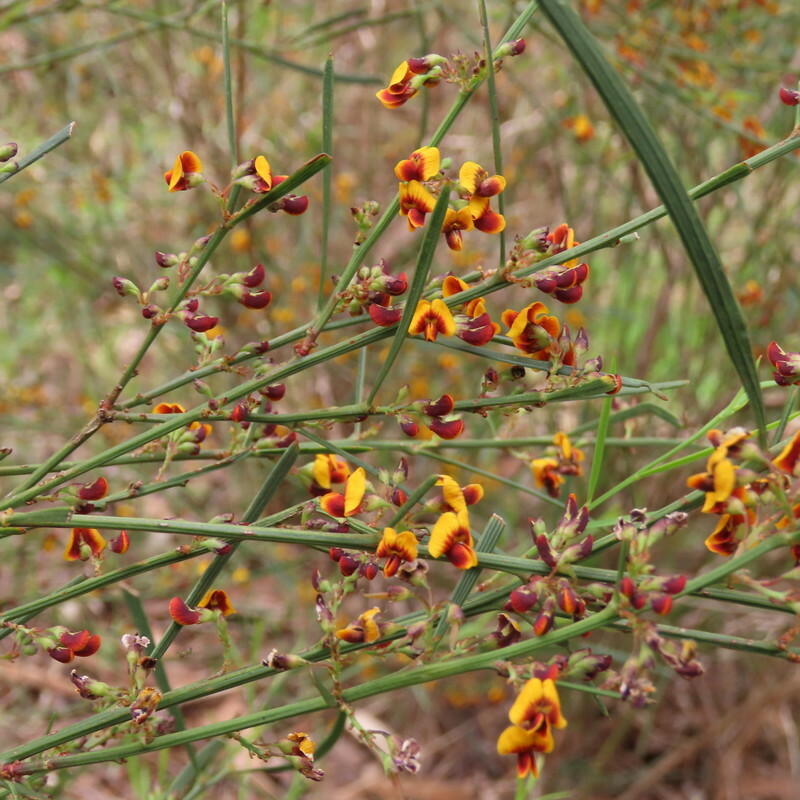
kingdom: Plantae
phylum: Tracheophyta
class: Magnoliopsida
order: Fabales
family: Fabaceae
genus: Daviesia
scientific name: Daviesia leptophylla
